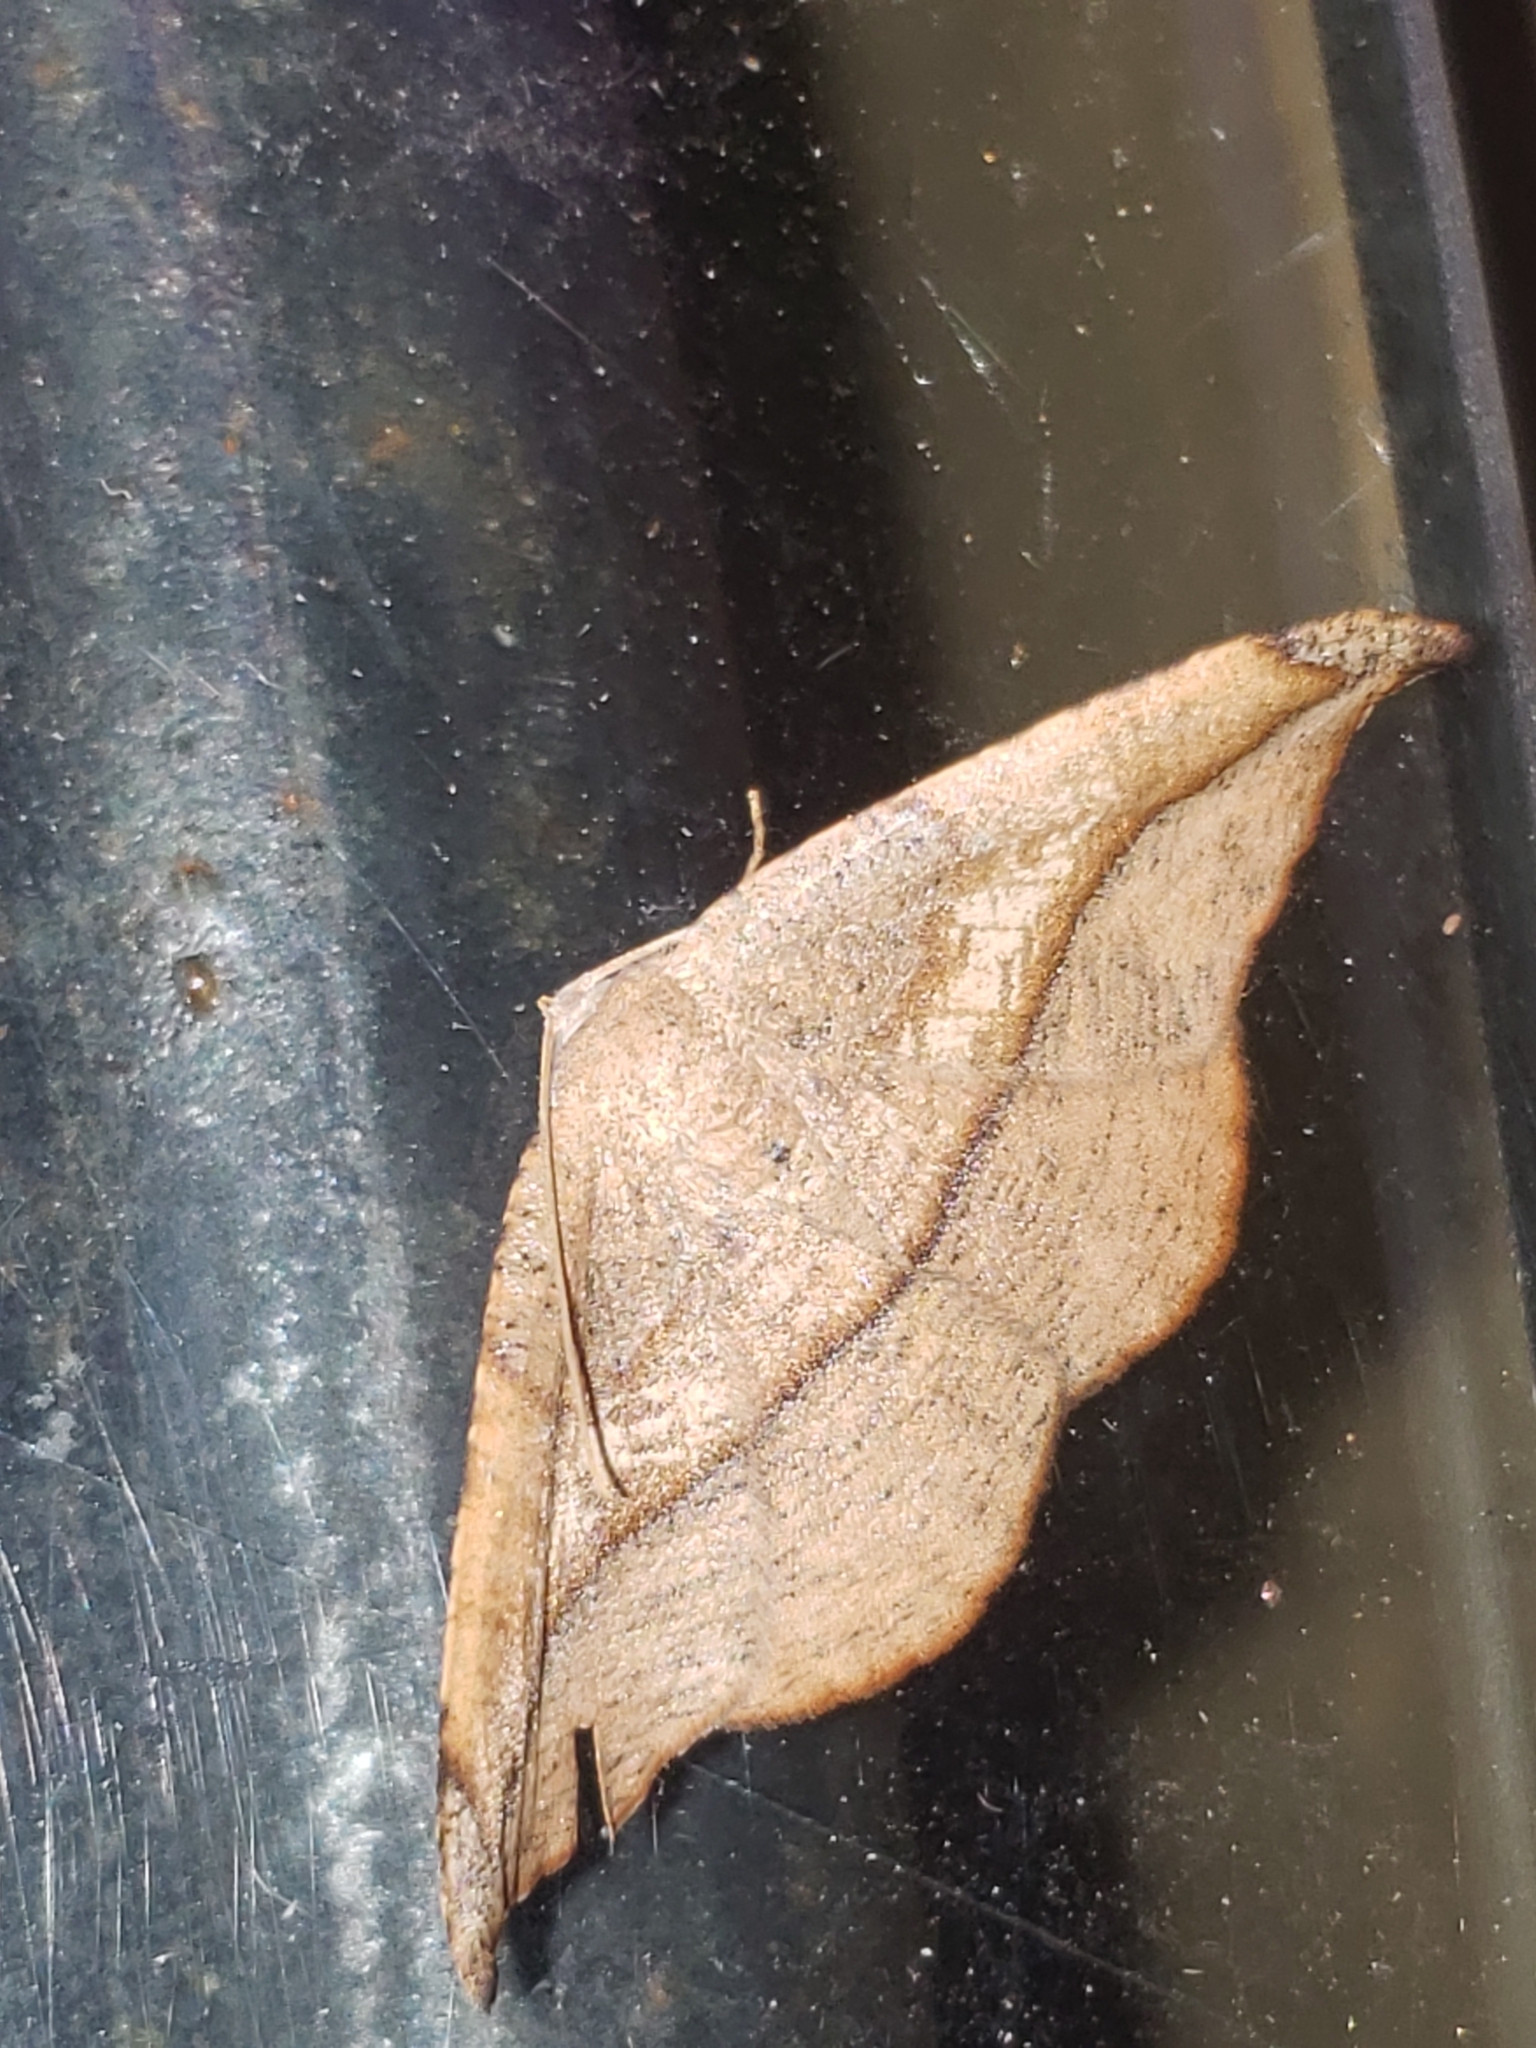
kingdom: Animalia
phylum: Arthropoda
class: Insecta
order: Lepidoptera
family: Geometridae
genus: Patalene
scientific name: Patalene olyzonaria
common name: Juniper geometer moth
